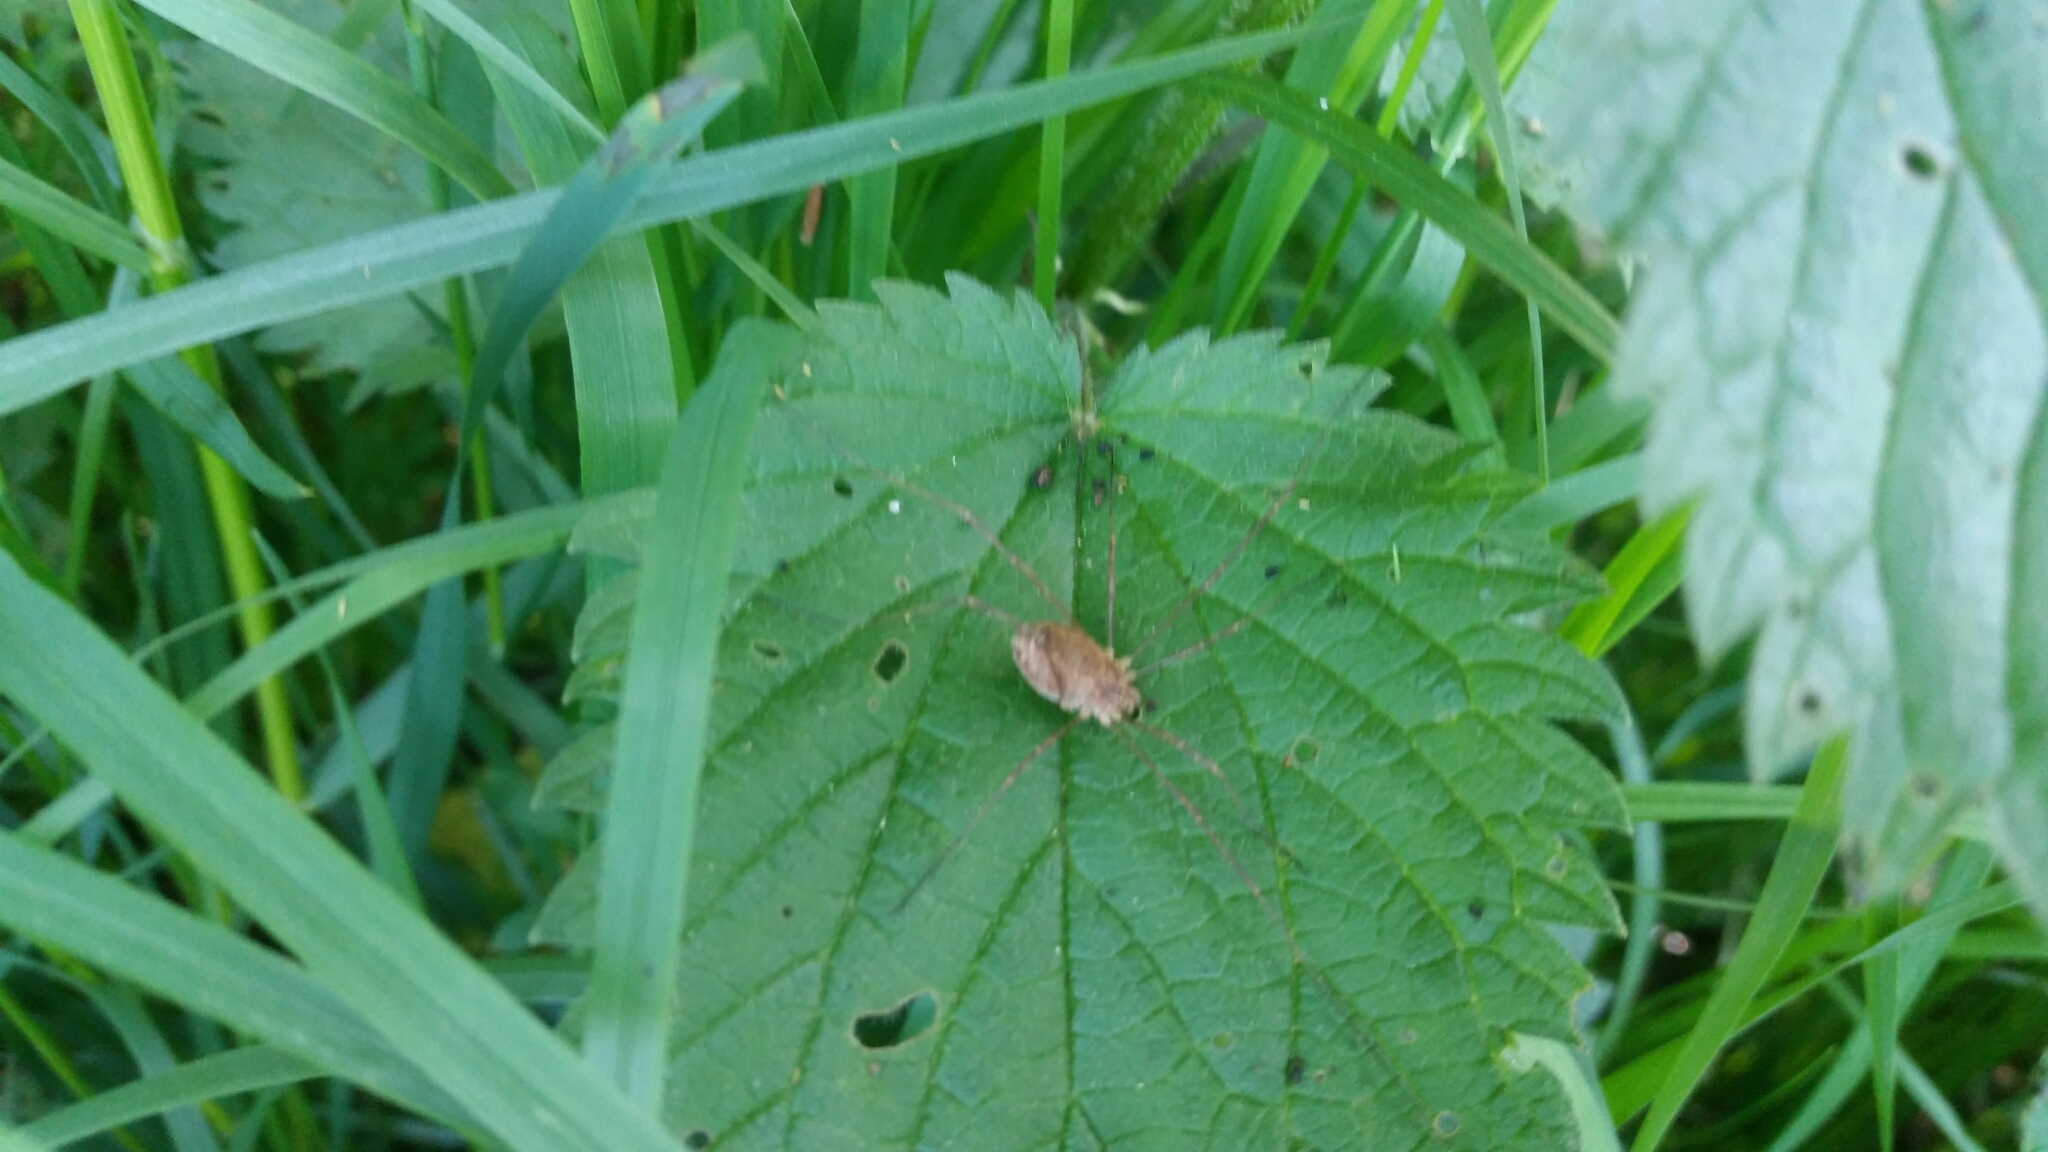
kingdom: Animalia
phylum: Arthropoda
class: Arachnida
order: Opiliones
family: Phalangiidae
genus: Rilaena
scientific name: Rilaena triangularis
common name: Spring harvestman
